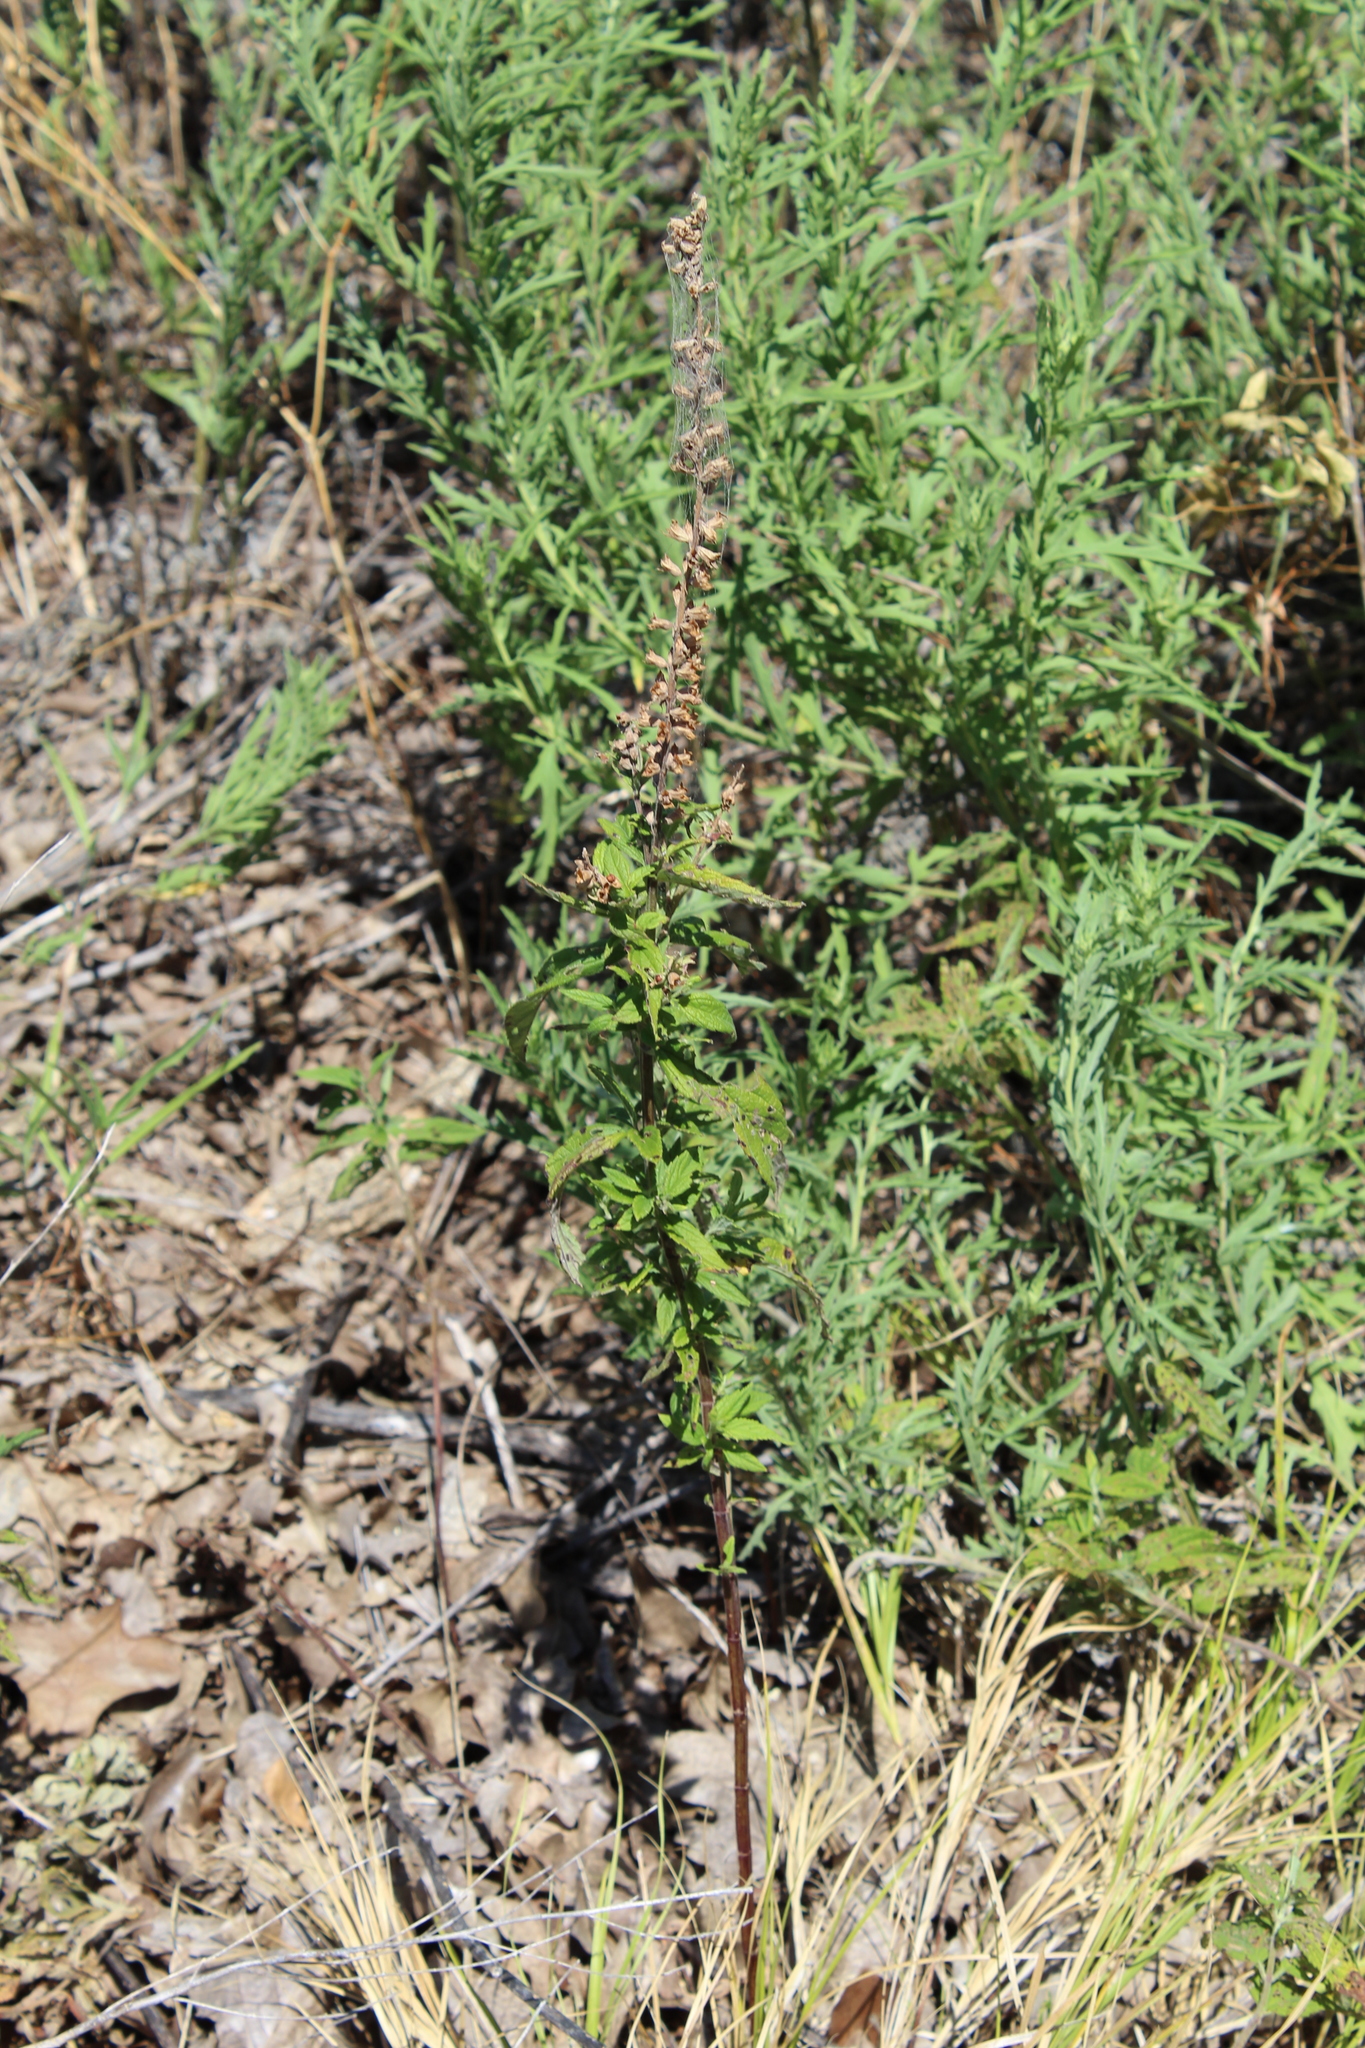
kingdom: Plantae
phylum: Tracheophyta
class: Magnoliopsida
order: Lamiales
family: Lamiaceae
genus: Teucrium
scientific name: Teucrium canadense
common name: American germander
